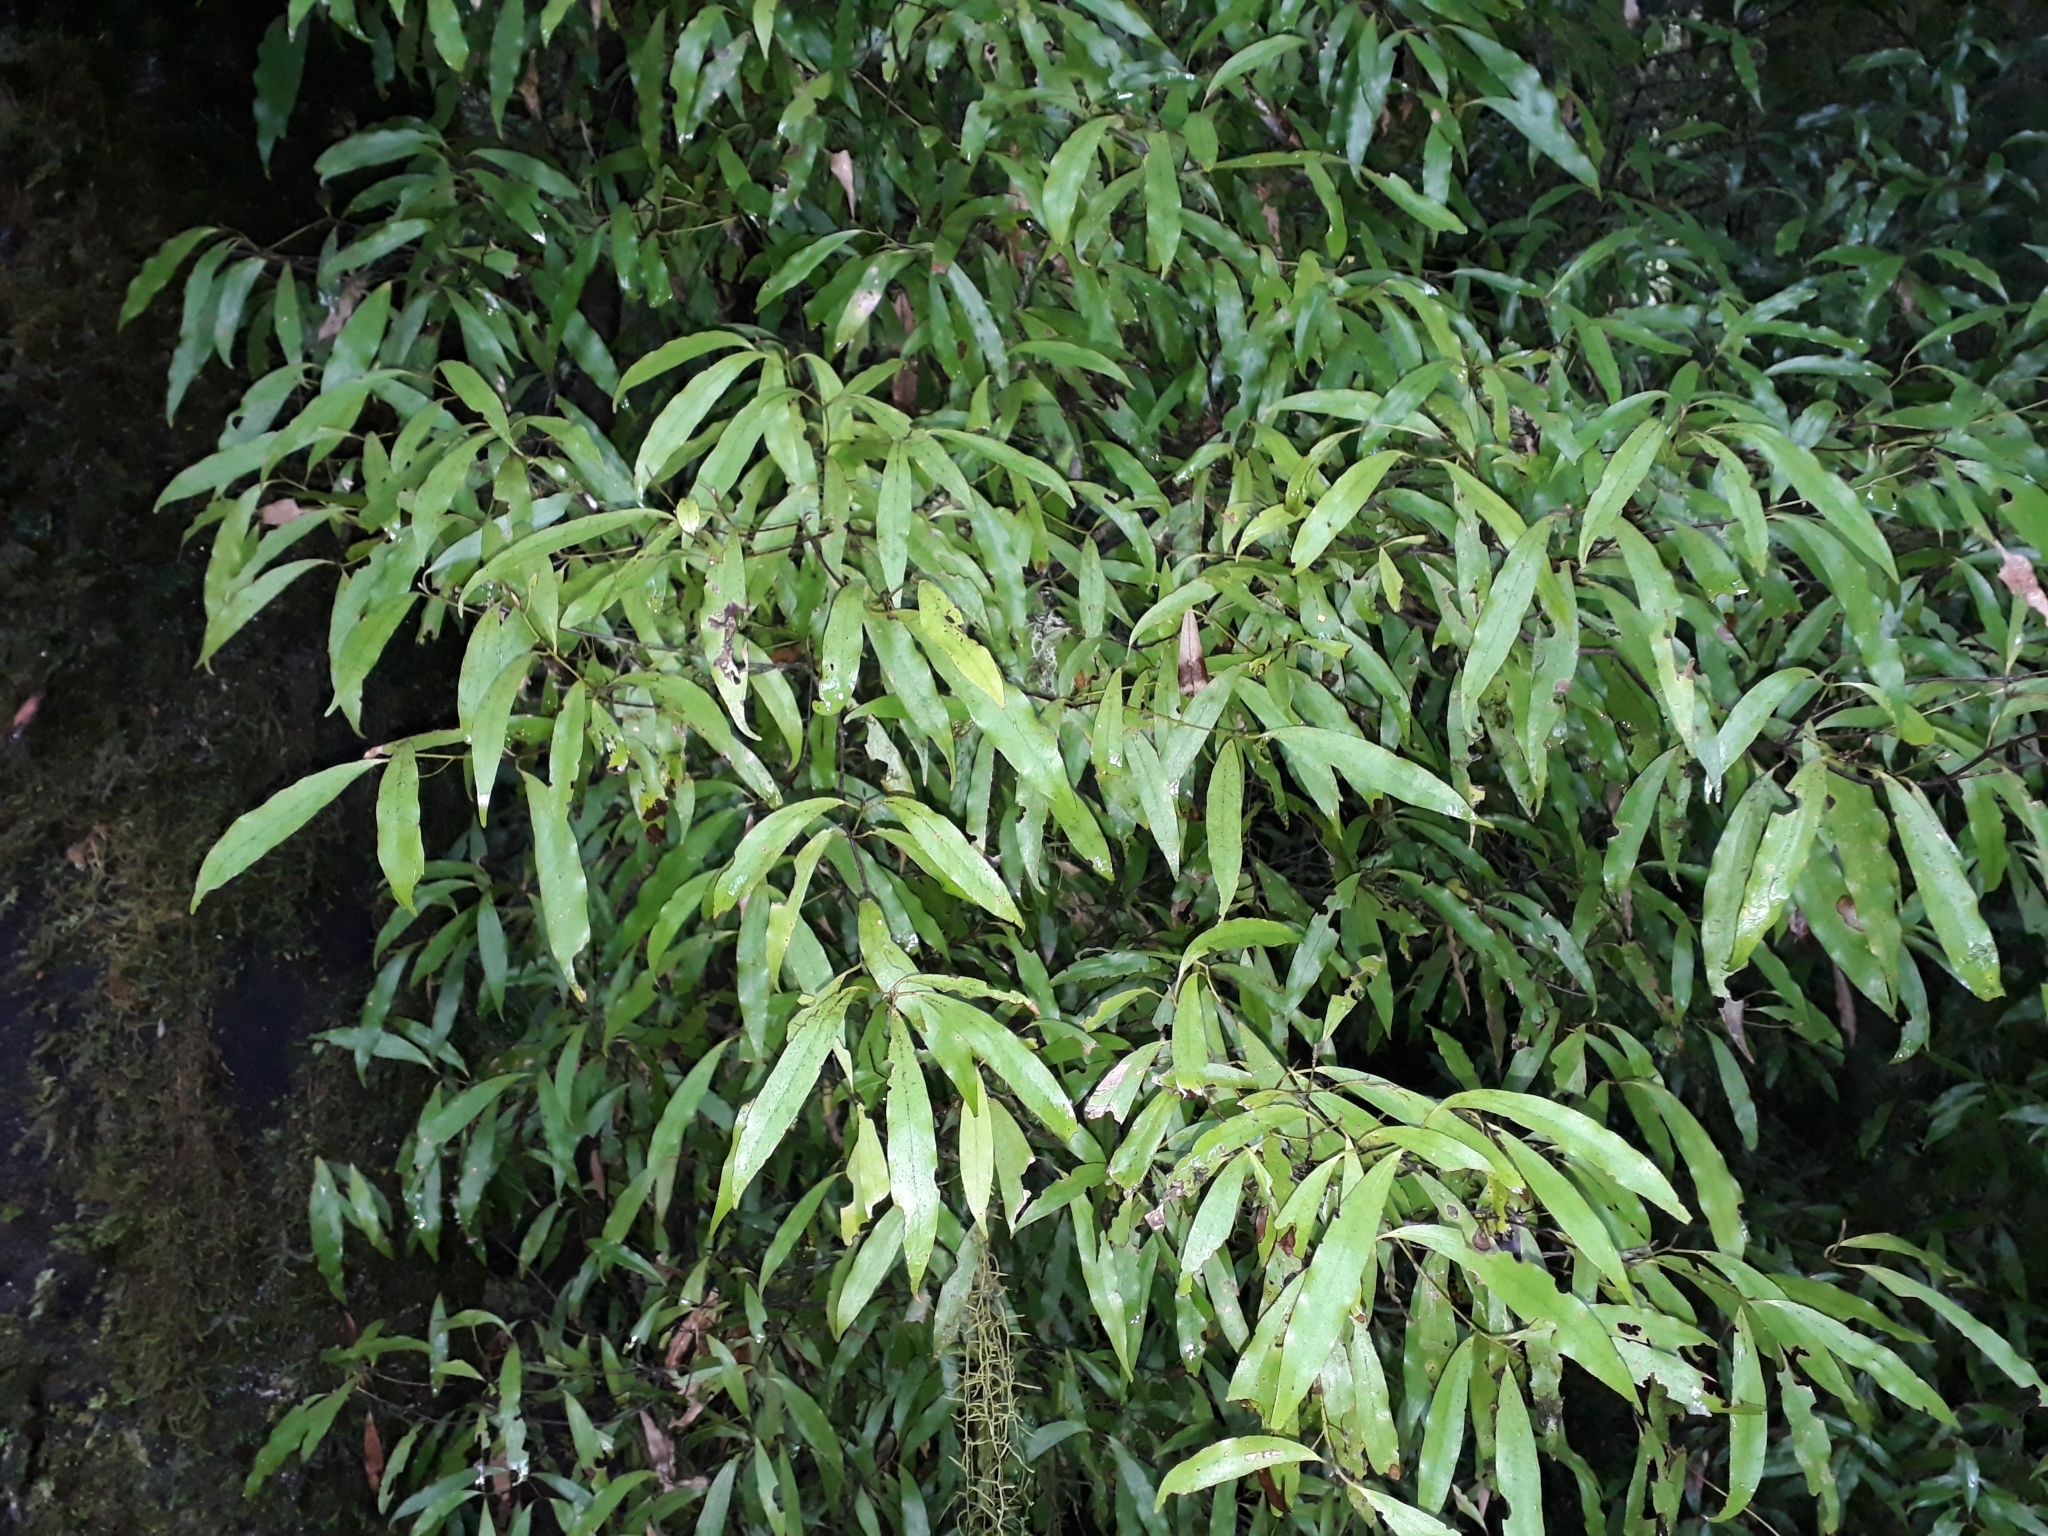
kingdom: Plantae
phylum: Tracheophyta
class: Magnoliopsida
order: Laurales
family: Lauraceae
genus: Beilschmiedia
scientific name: Beilschmiedia tawa
